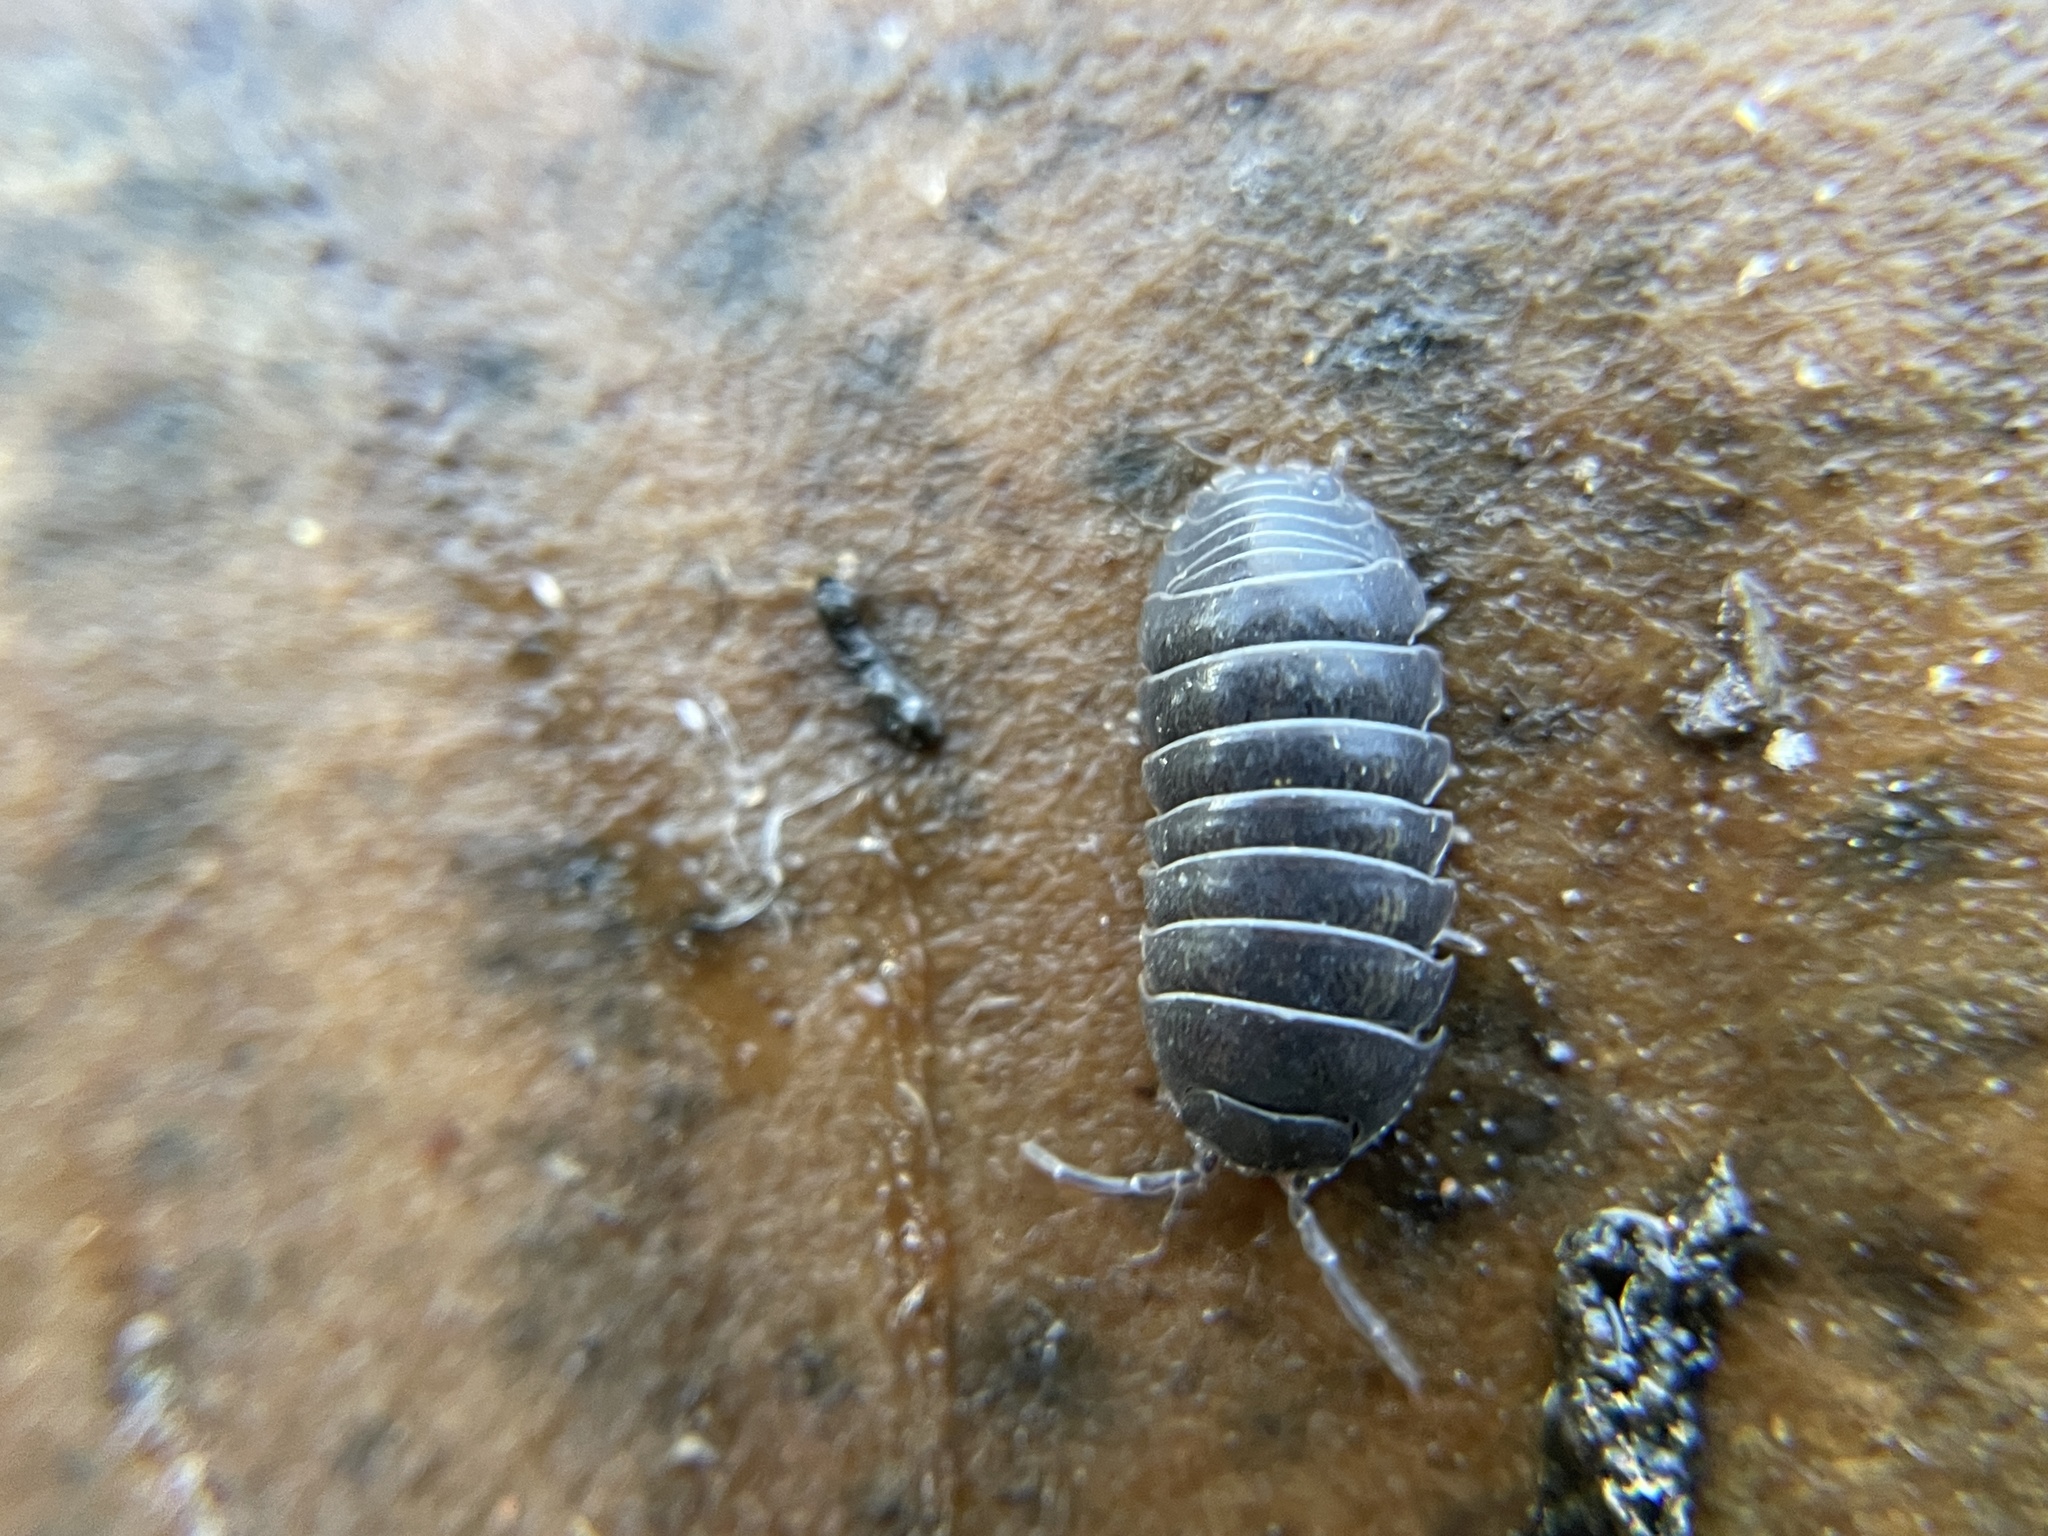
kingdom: Animalia
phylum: Arthropoda
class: Malacostraca
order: Isopoda
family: Armadillidiidae
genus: Armadillidium
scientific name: Armadillidium vulgare
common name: Common pill woodlouse
